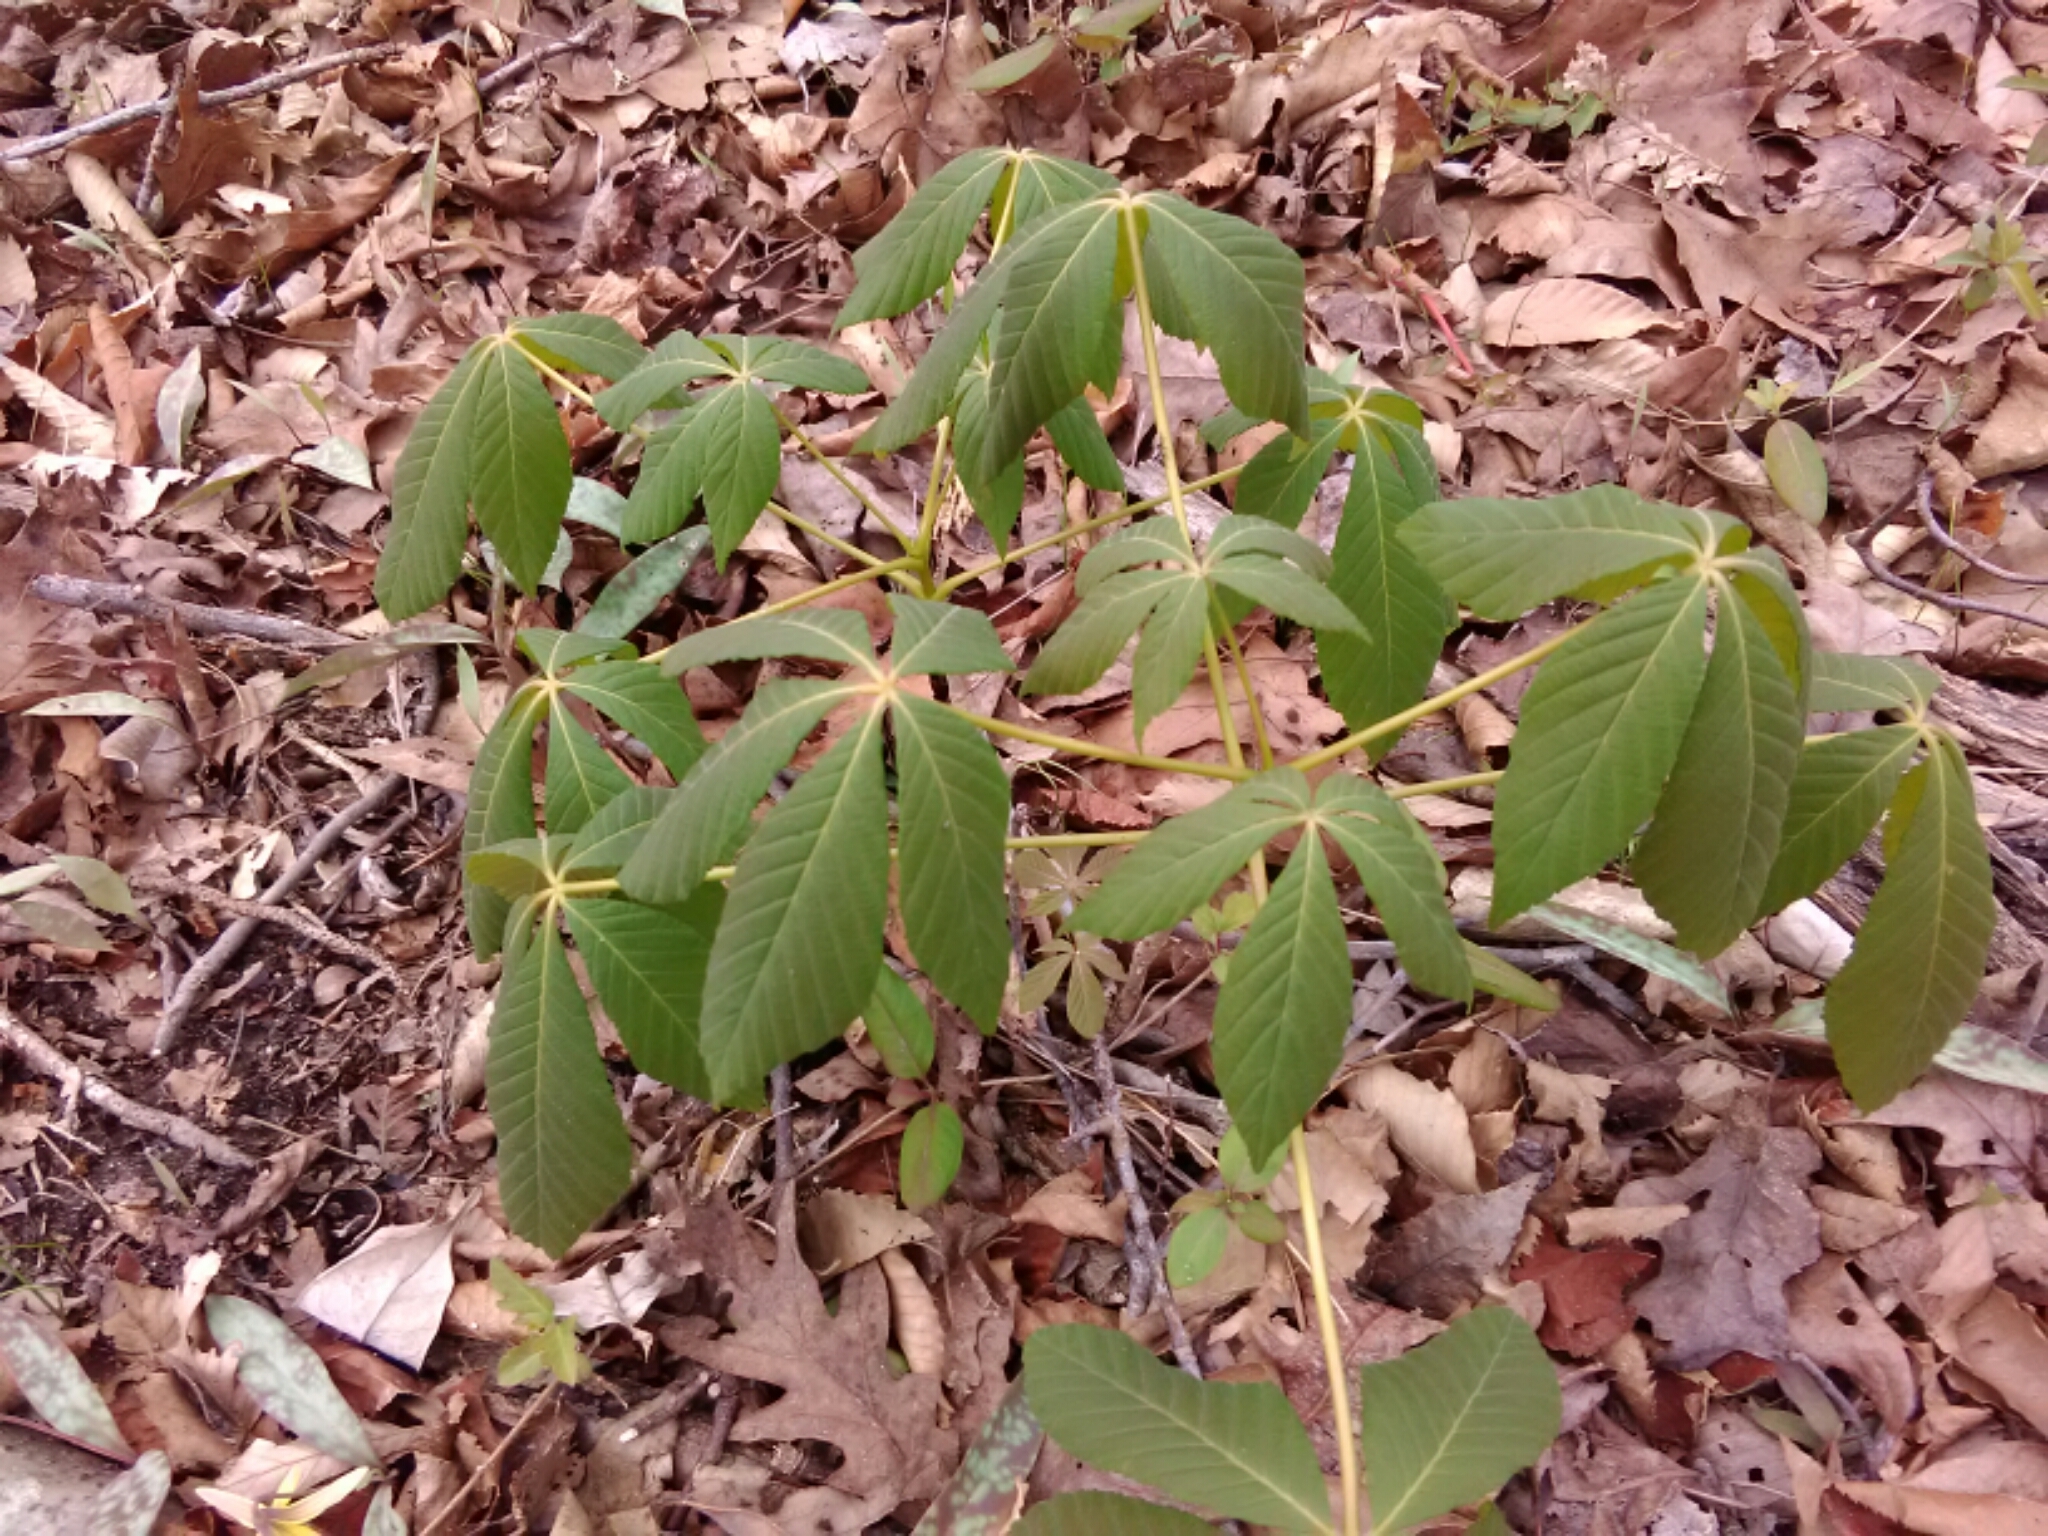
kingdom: Plantae
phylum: Tracheophyta
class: Magnoliopsida
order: Sapindales
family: Sapindaceae
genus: Aesculus
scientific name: Aesculus sylvatica
